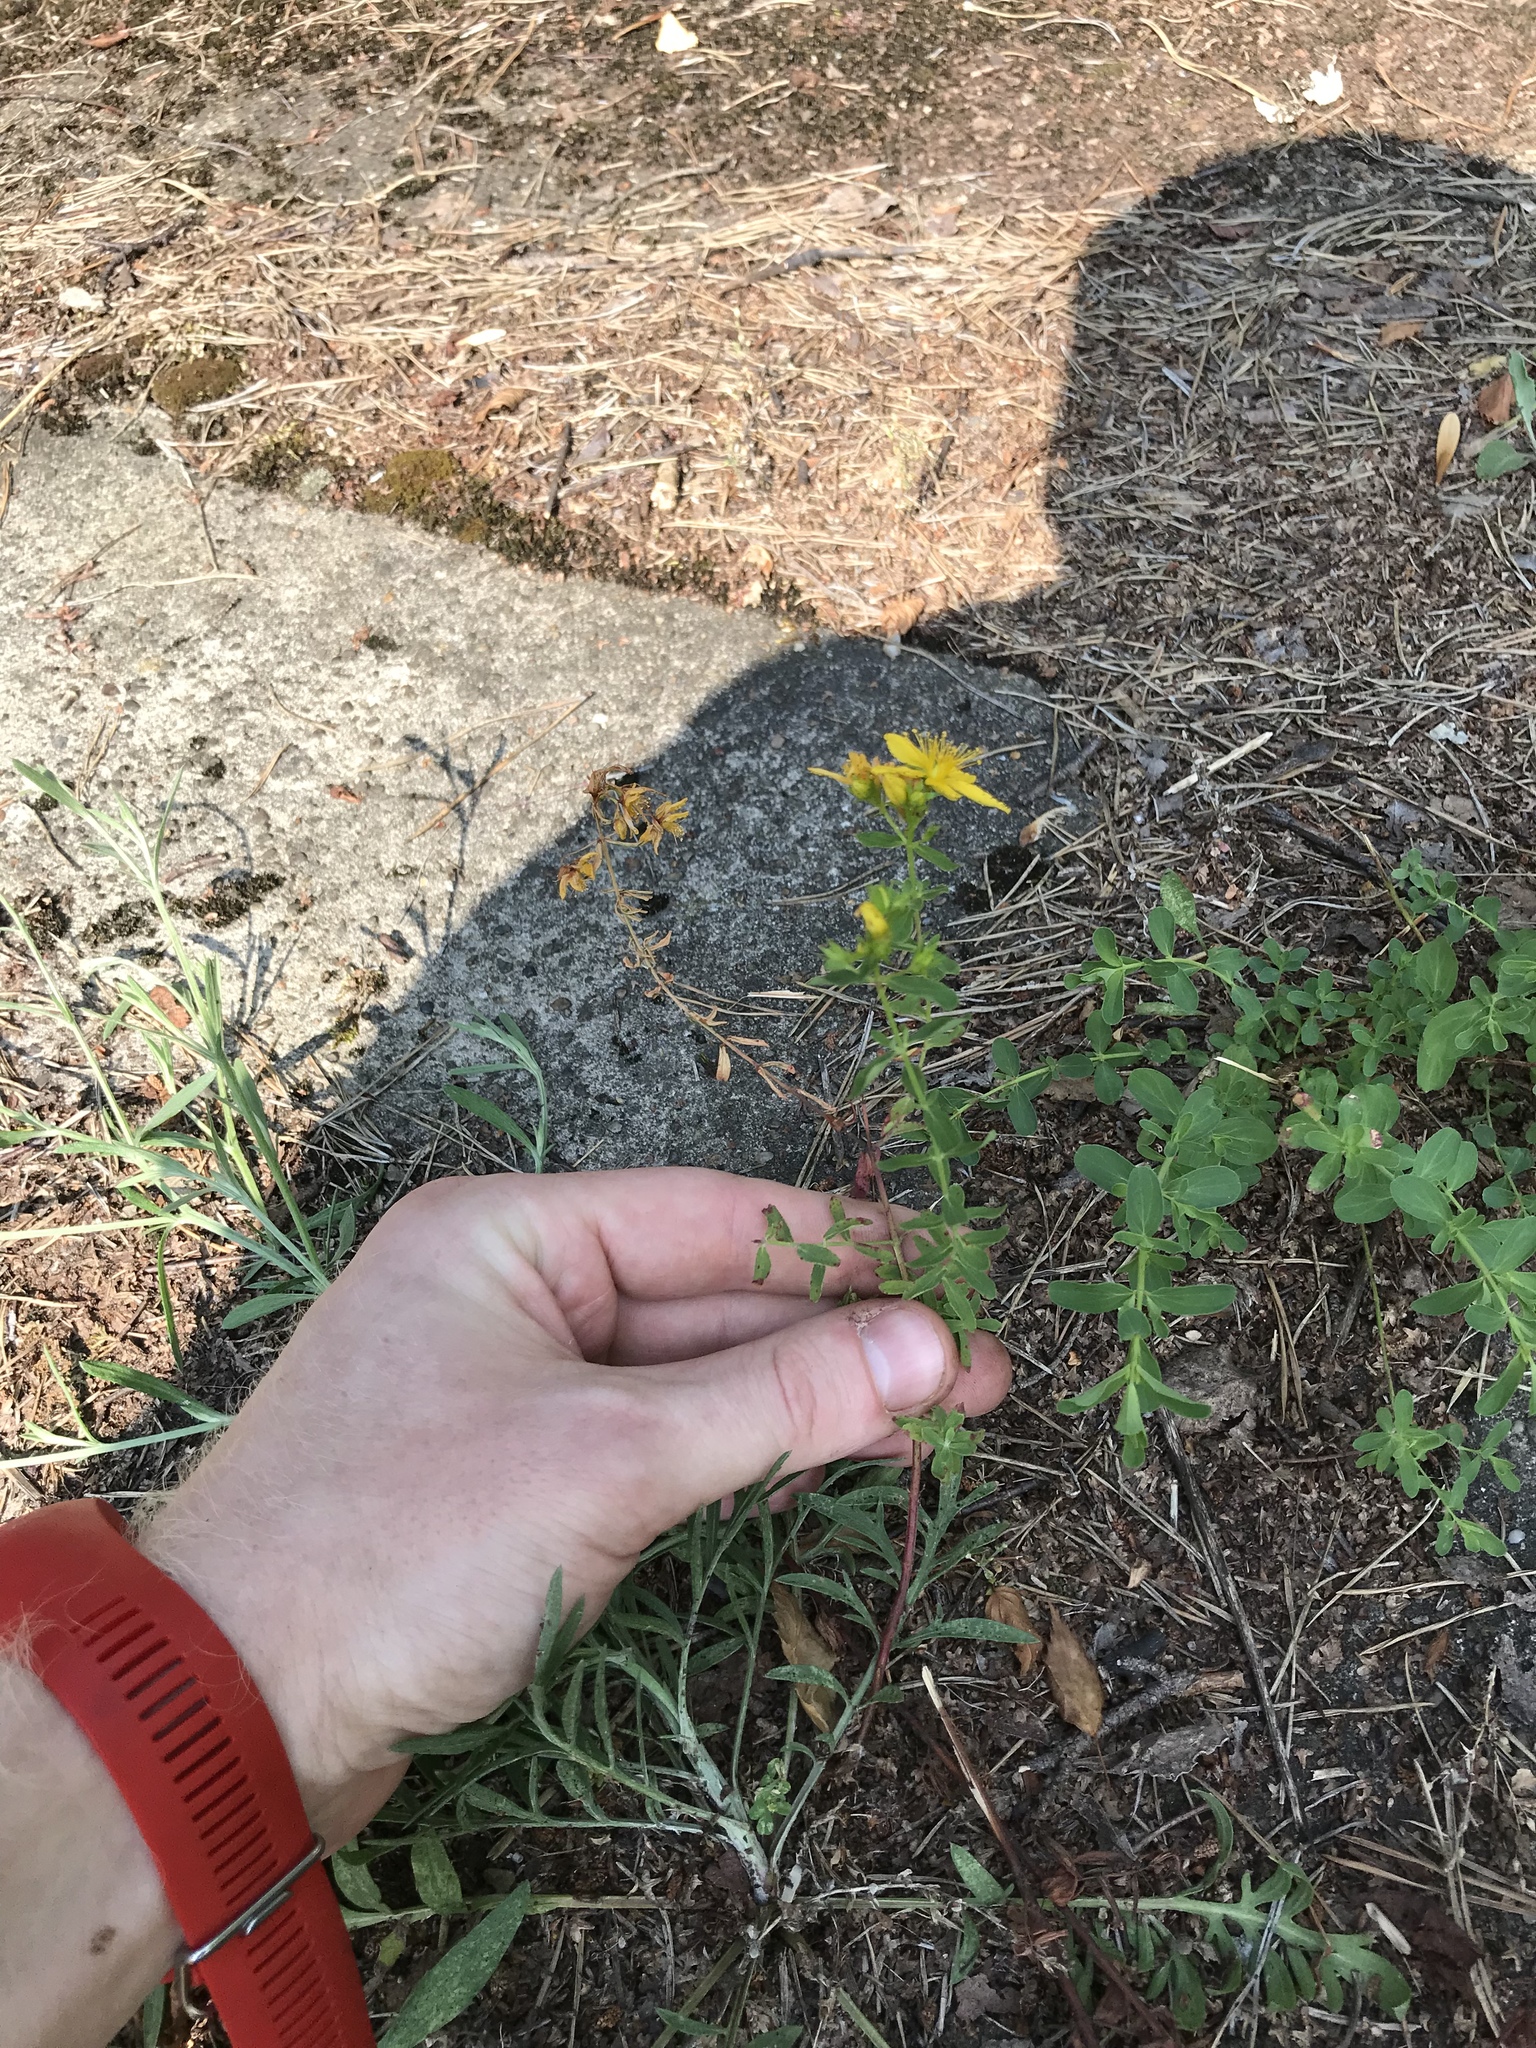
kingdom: Plantae
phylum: Tracheophyta
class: Magnoliopsida
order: Malpighiales
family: Hypericaceae
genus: Hypericum
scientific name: Hypericum perforatum
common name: Common st. johnswort
